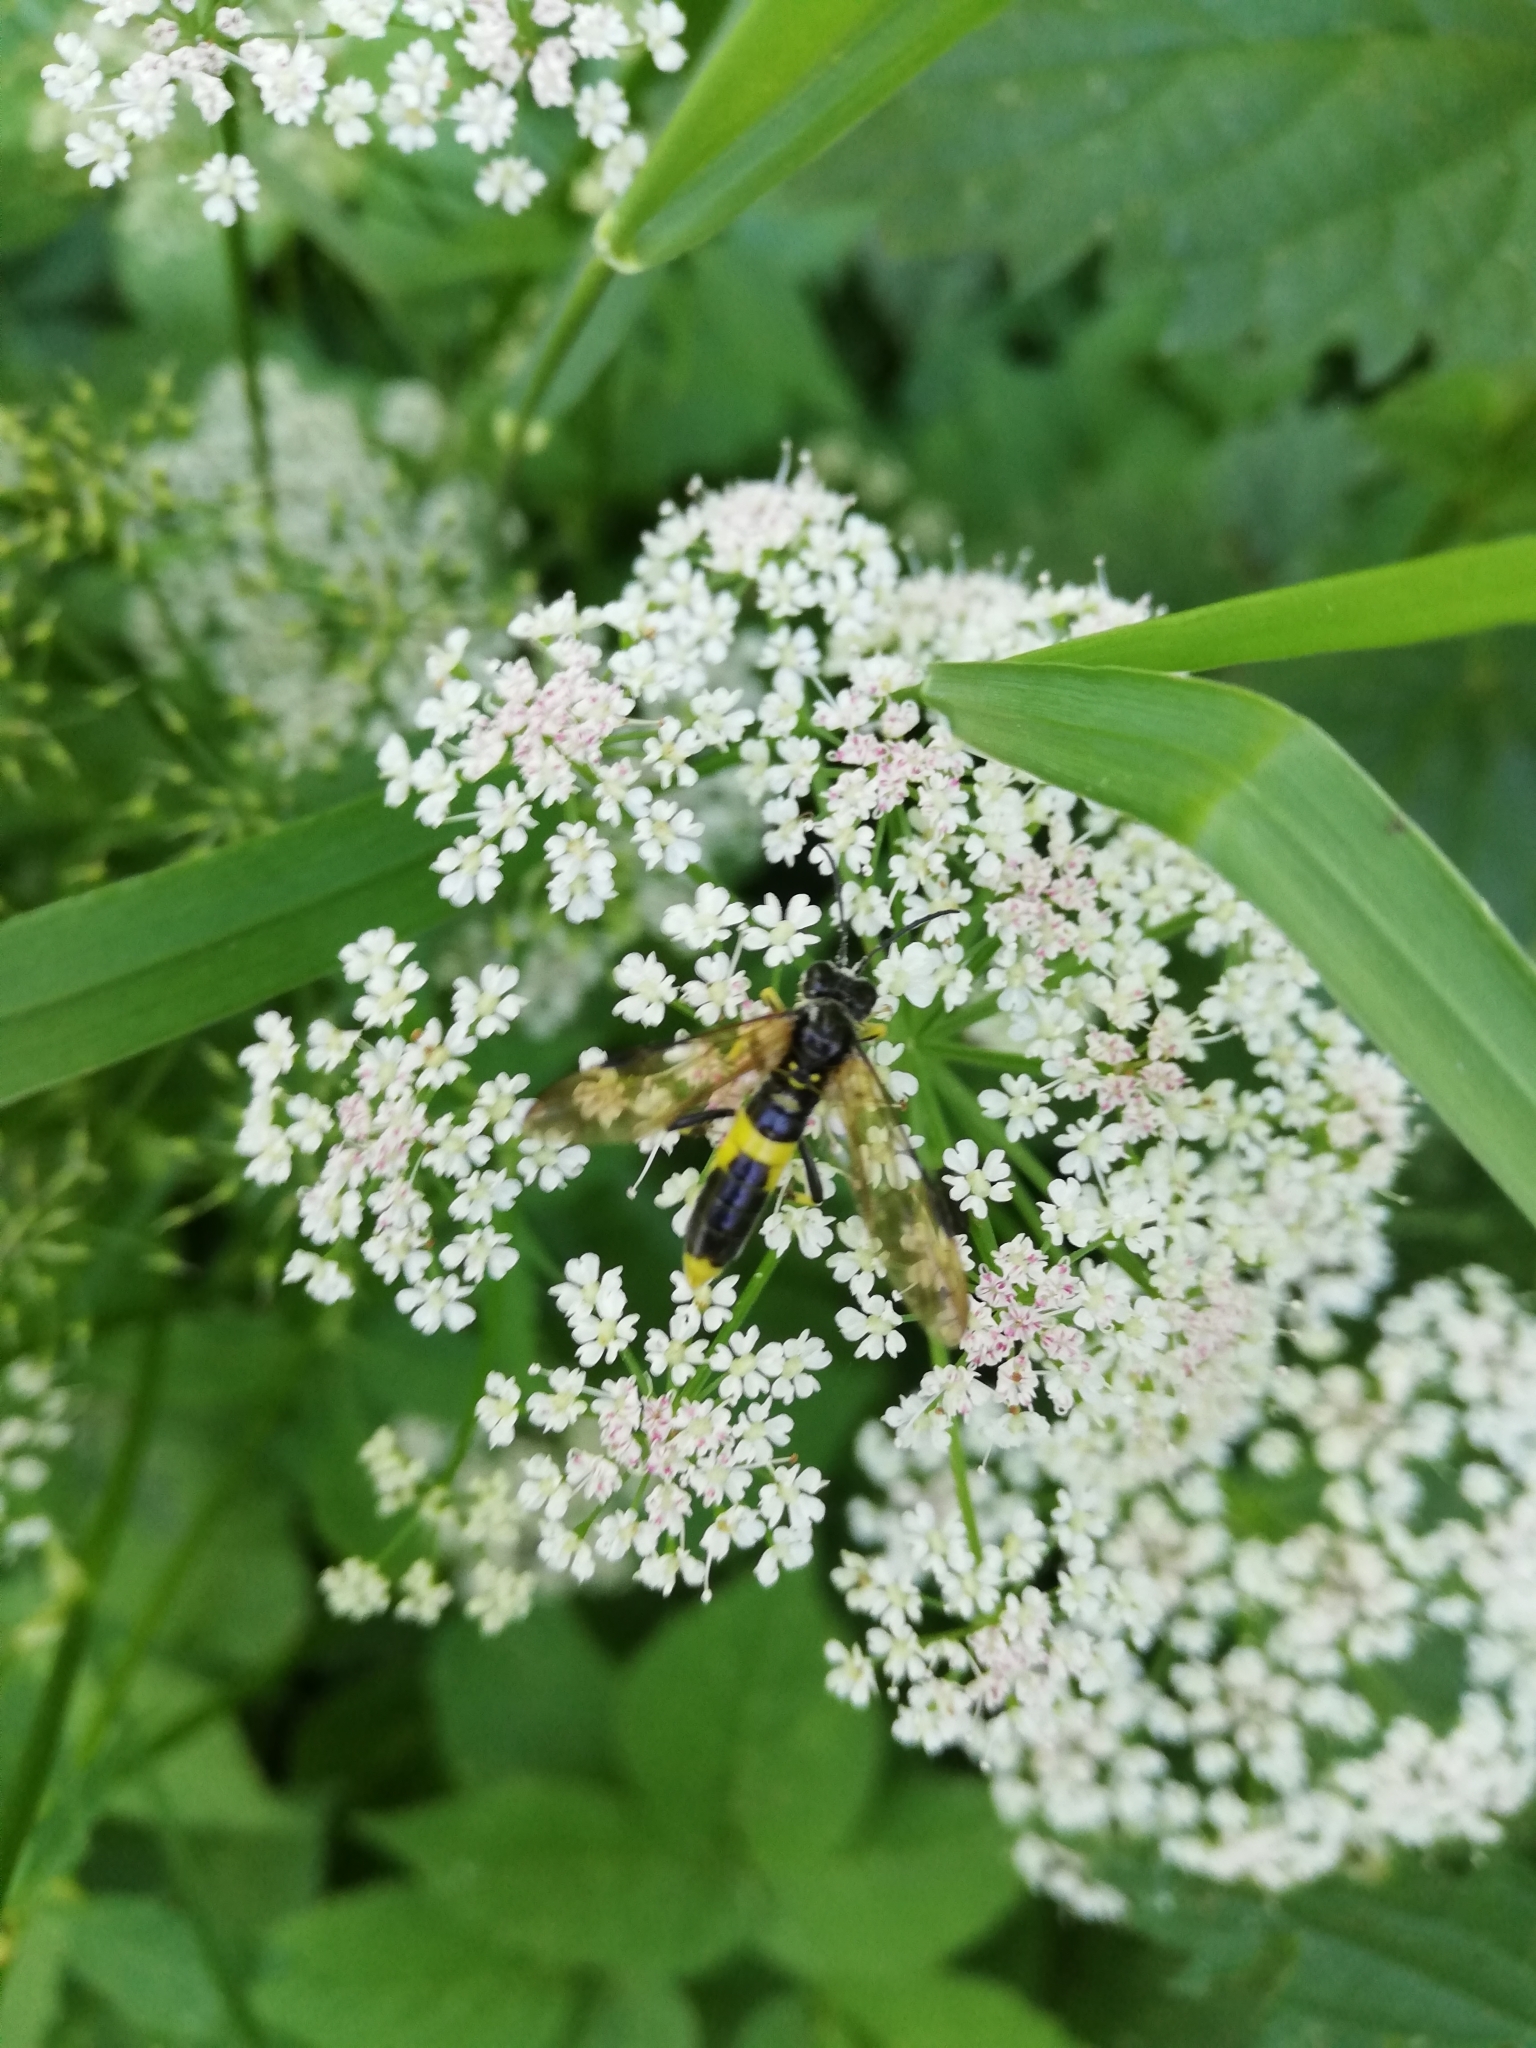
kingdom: Animalia
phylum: Arthropoda
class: Insecta
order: Hymenoptera
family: Tenthredinidae
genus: Tenthredo
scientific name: Tenthredo temula
